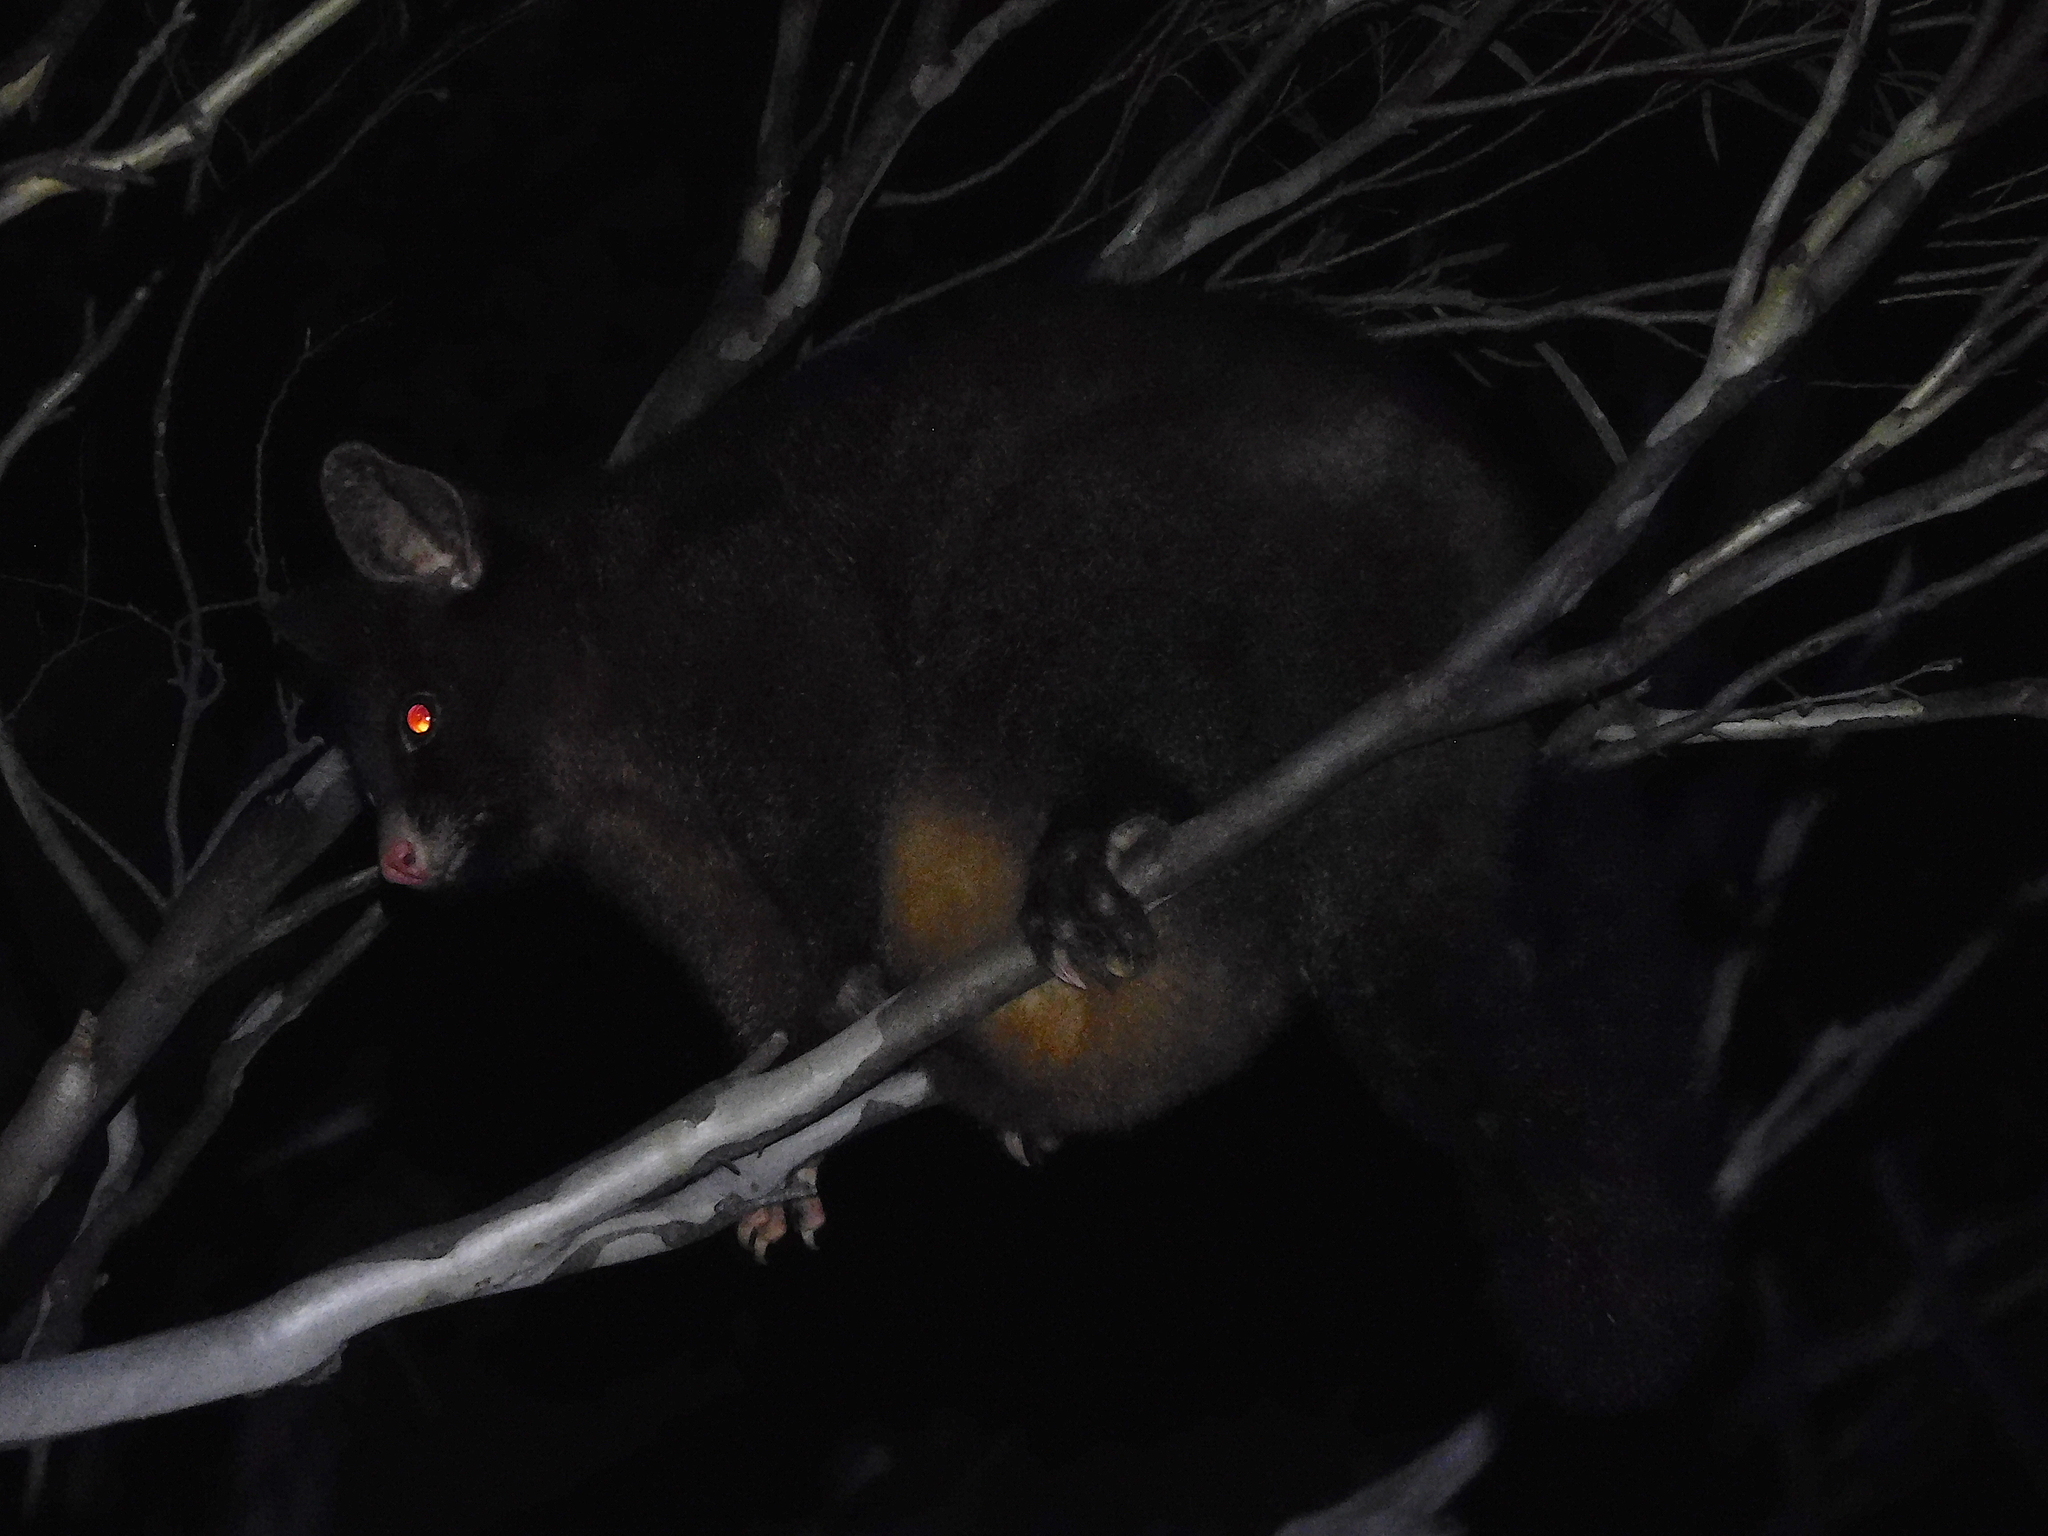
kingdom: Animalia
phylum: Chordata
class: Mammalia
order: Diprotodontia
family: Phalangeridae
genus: Trichosurus
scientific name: Trichosurus vulpecula
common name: Common brushtail
